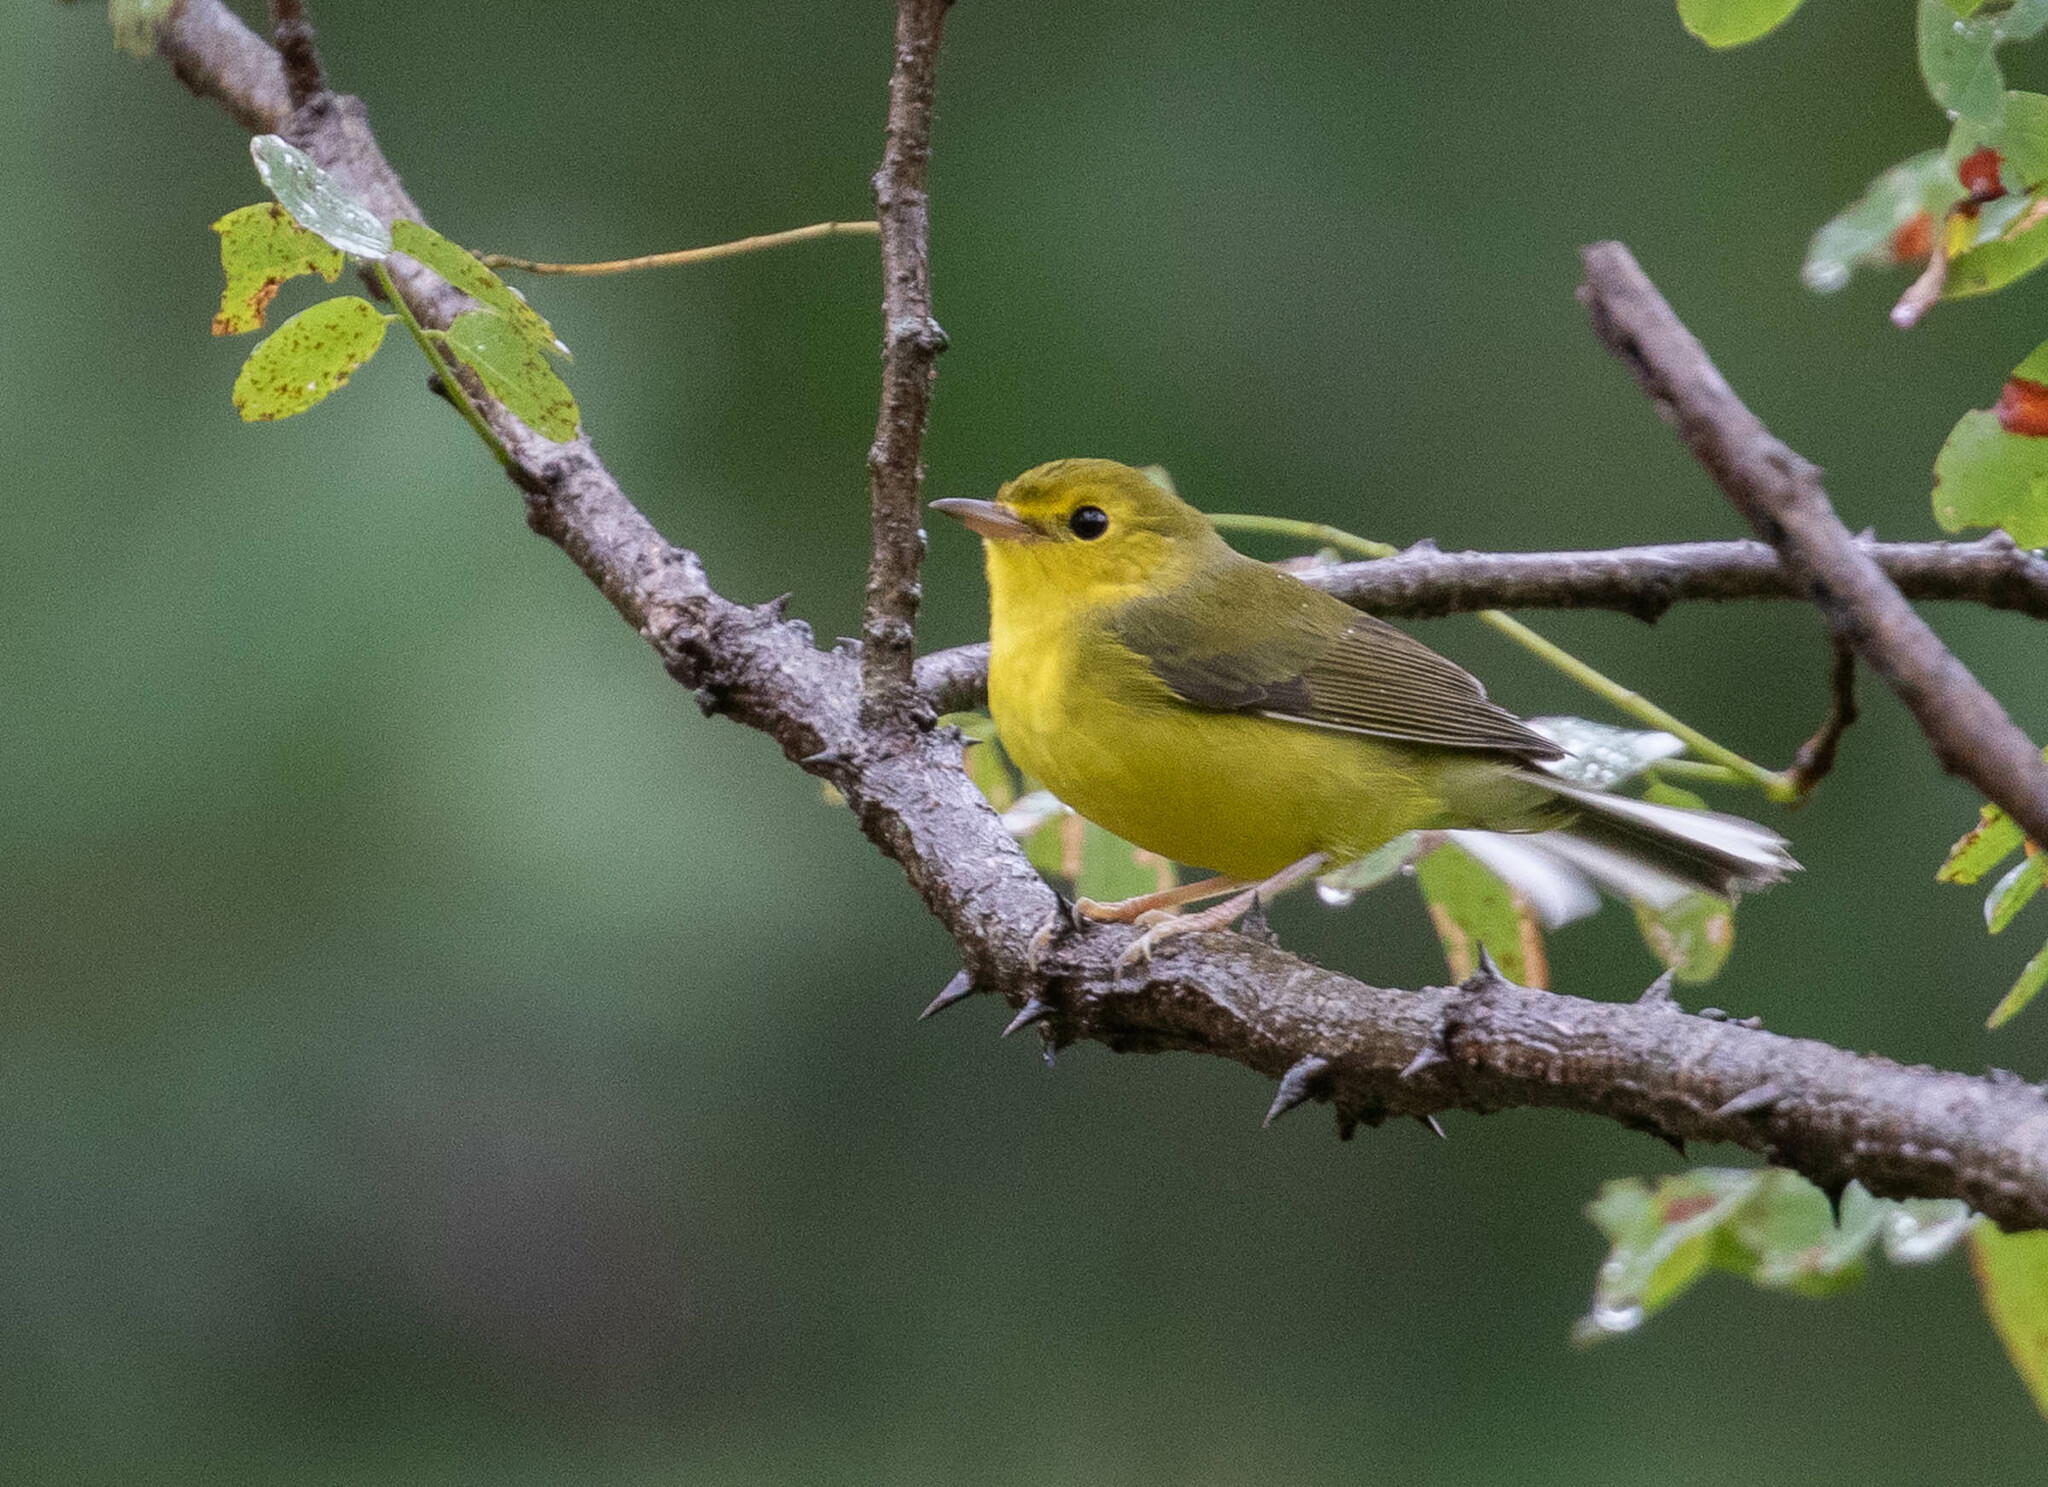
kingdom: Animalia
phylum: Chordata
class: Aves
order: Passeriformes
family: Parulidae
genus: Setophaga
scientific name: Setophaga citrina
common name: Hooded warbler
